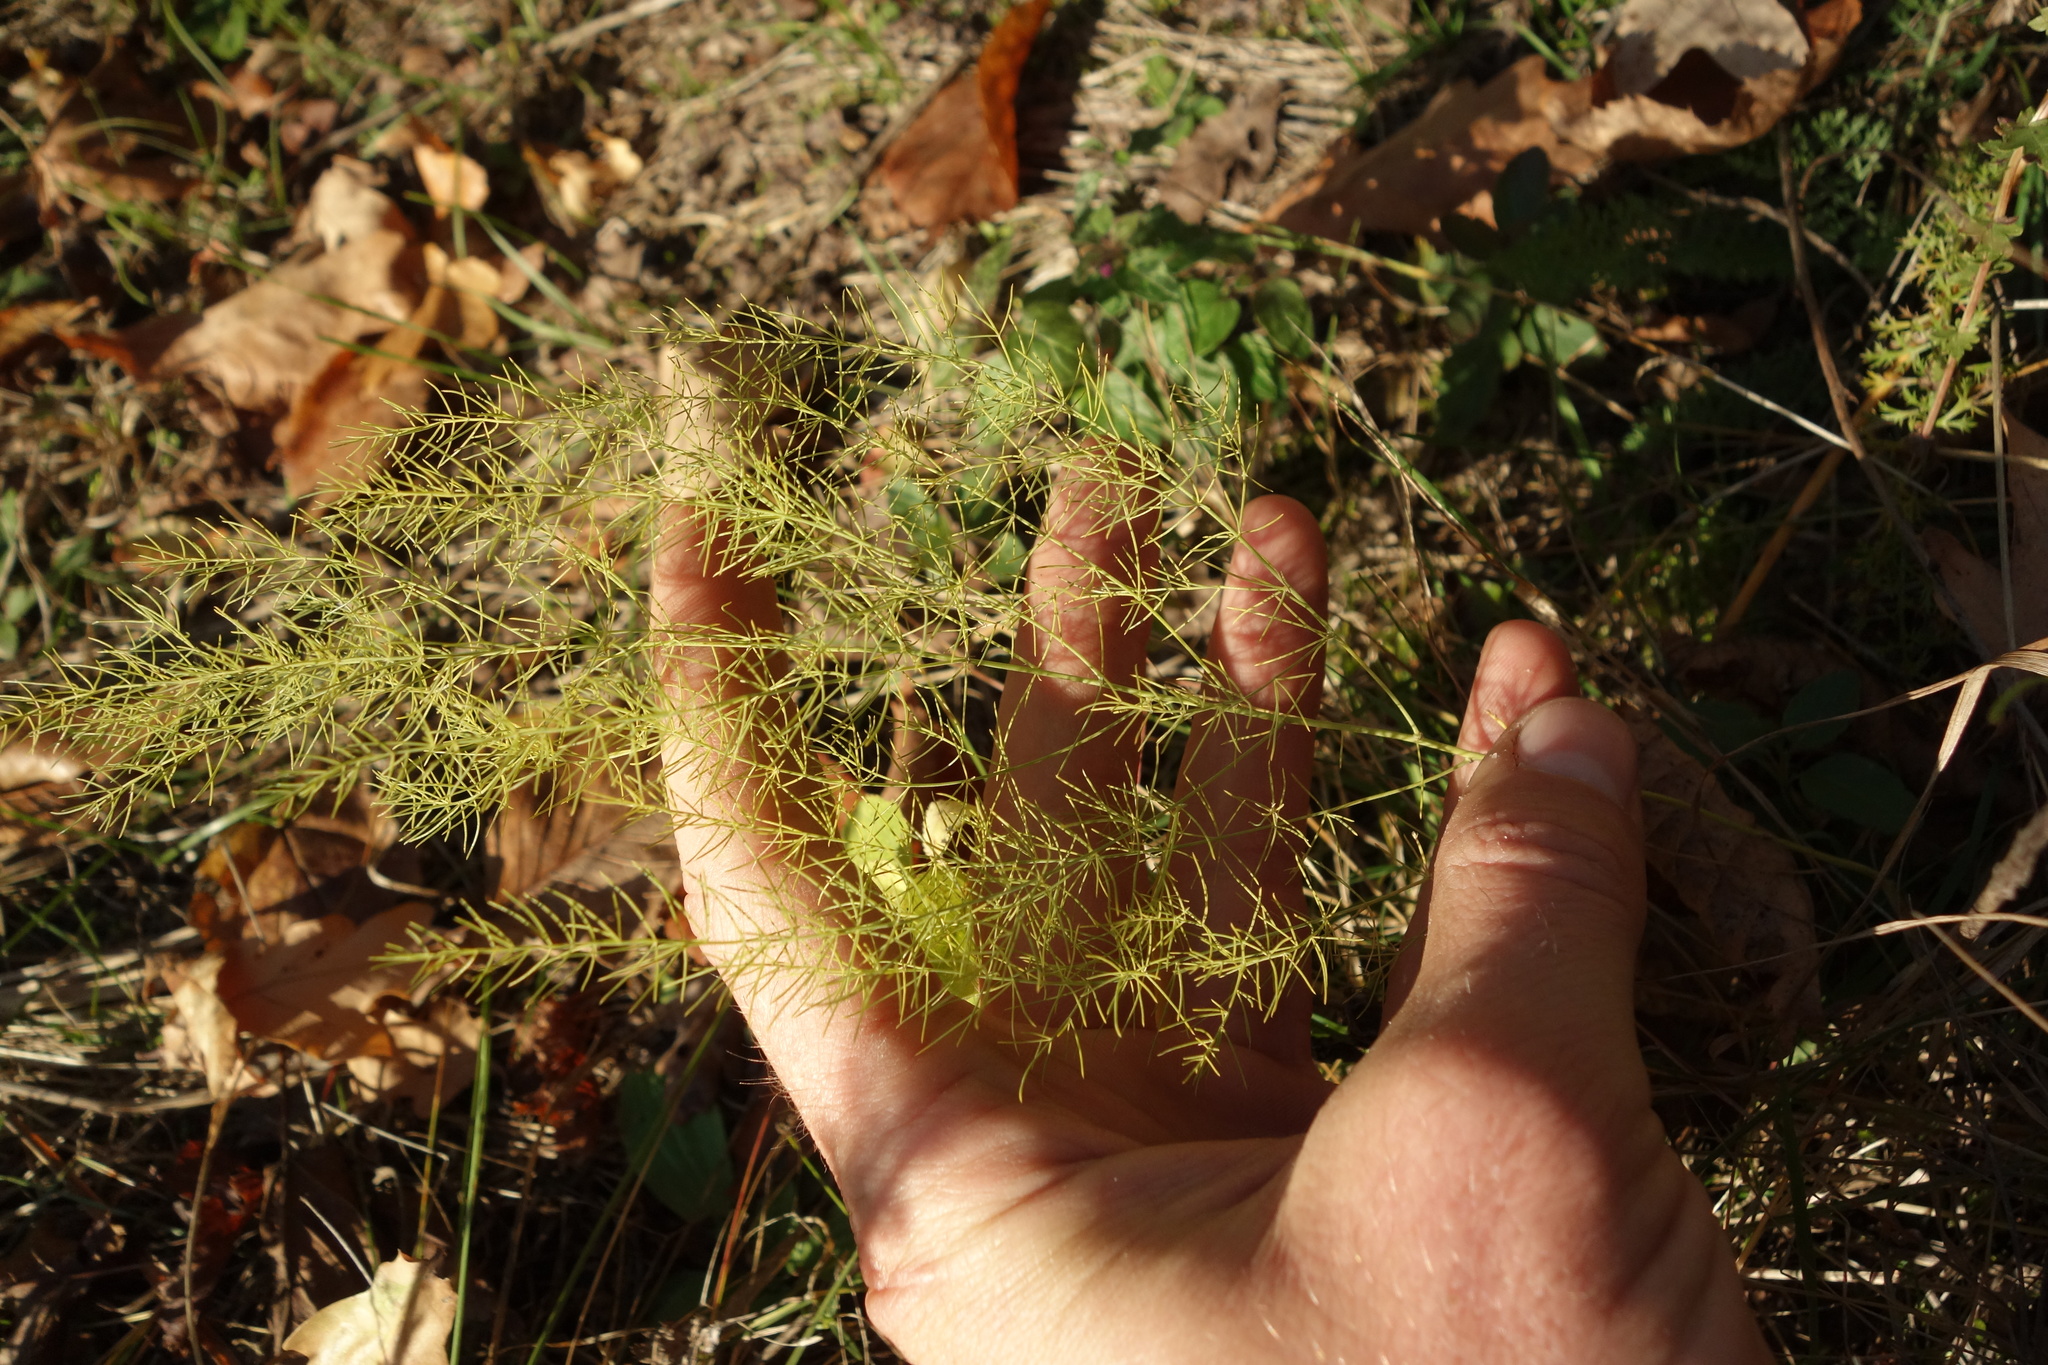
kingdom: Plantae
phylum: Tracheophyta
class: Liliopsida
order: Asparagales
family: Asparagaceae
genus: Asparagus
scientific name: Asparagus officinalis
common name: Garden asparagus
